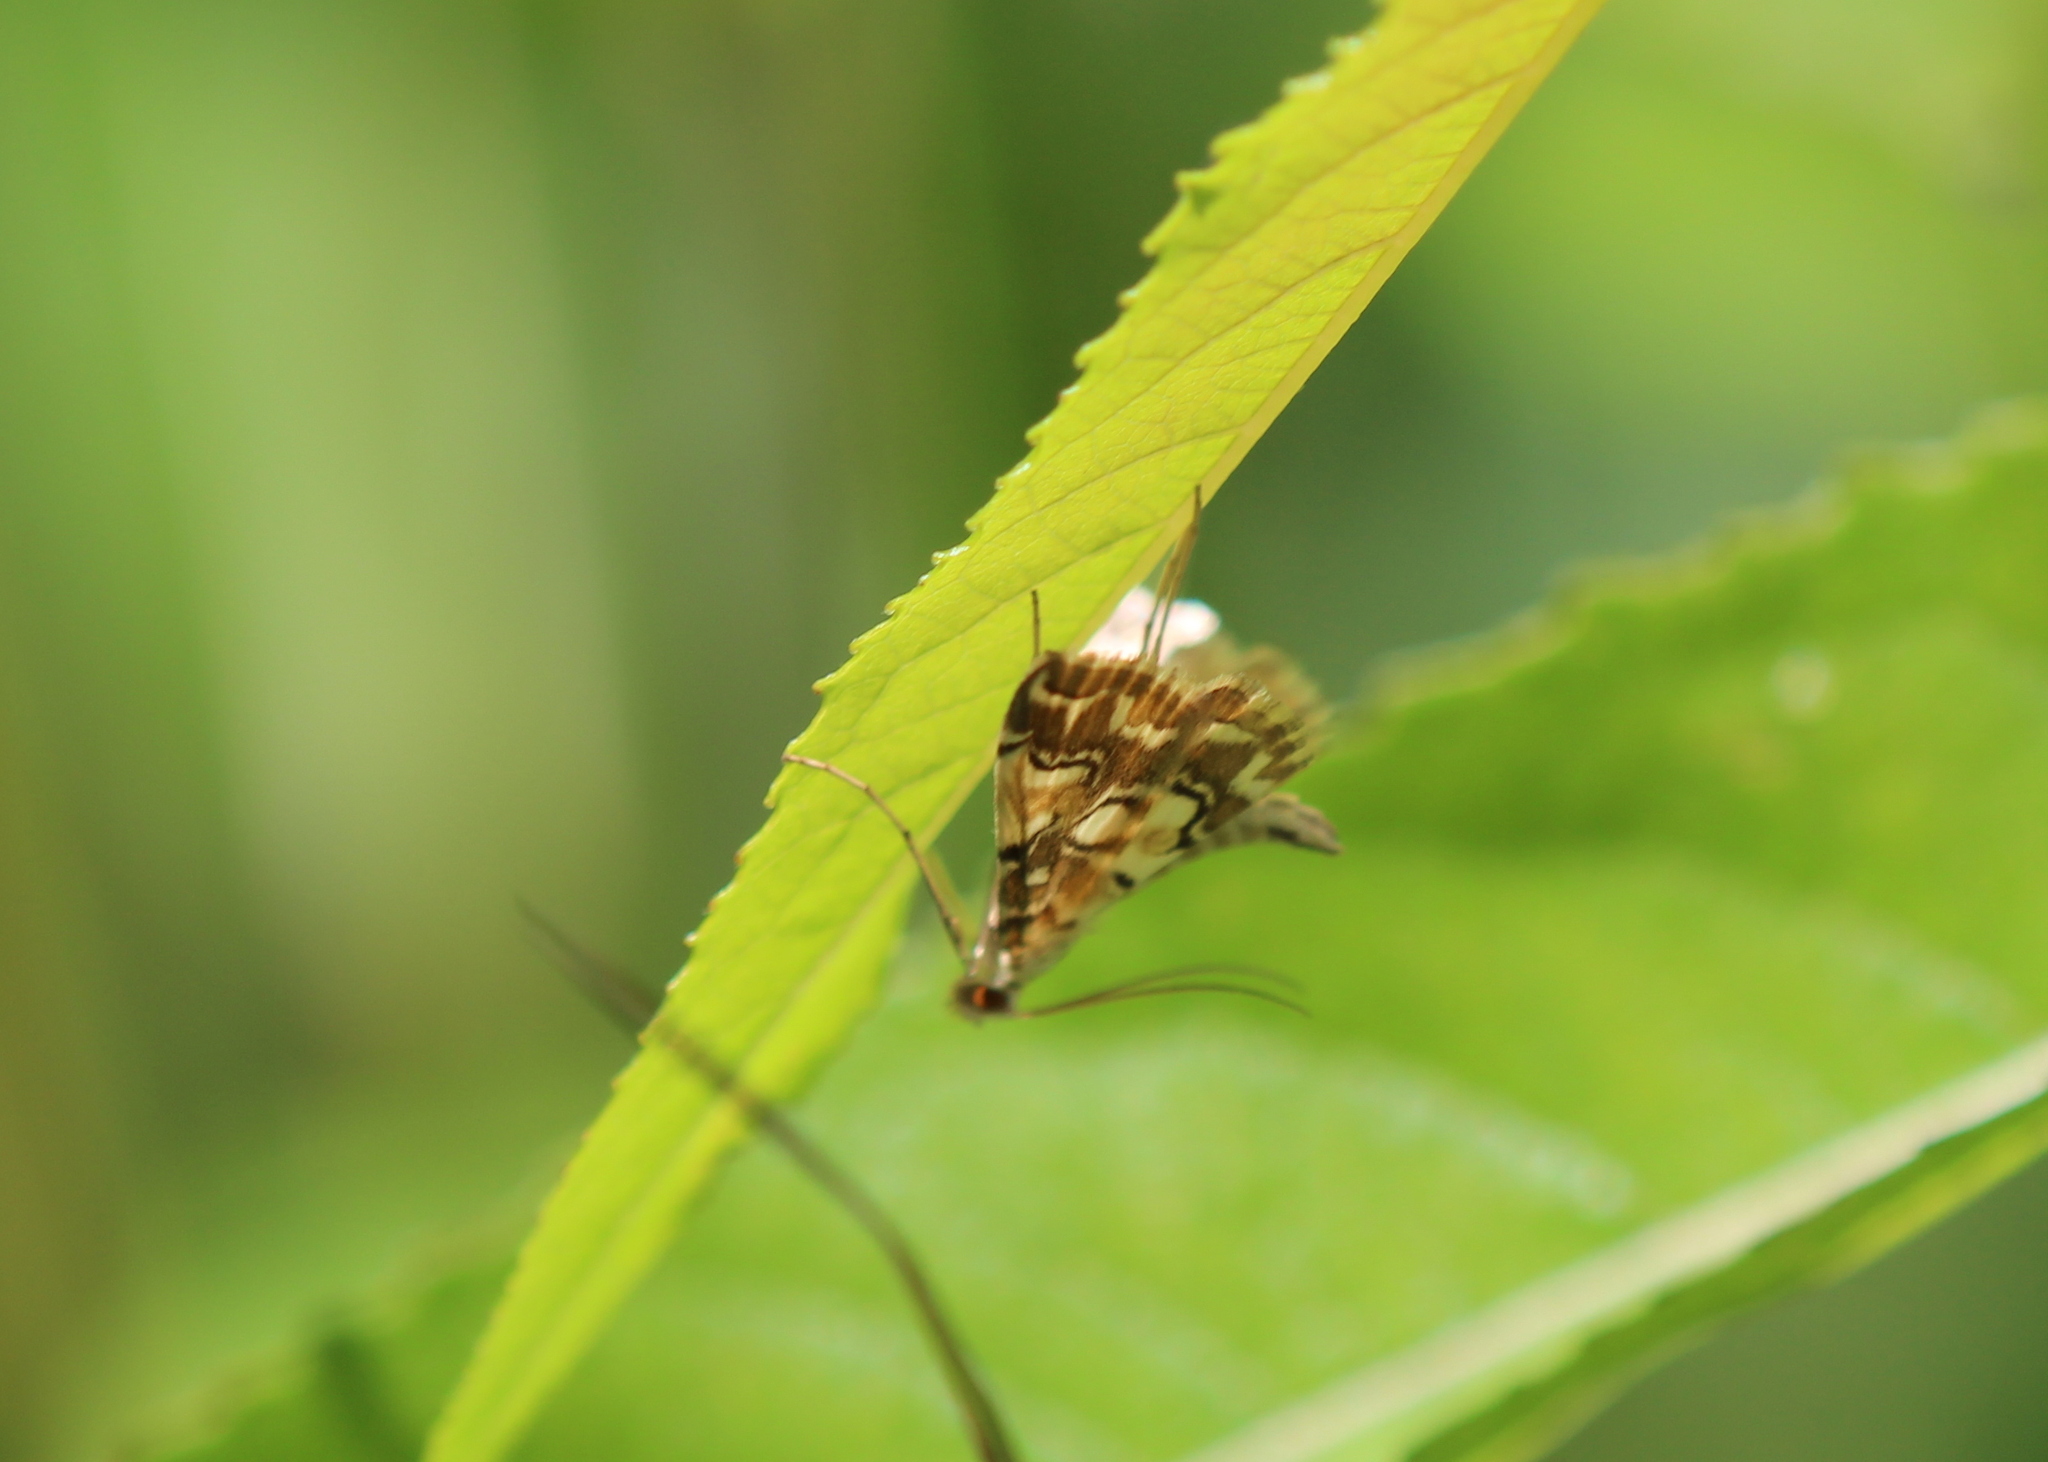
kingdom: Animalia
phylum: Arthropoda
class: Insecta
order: Lepidoptera
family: Crambidae
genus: Elophila
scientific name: Elophila icciusalis
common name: Pondside pyralid moth
